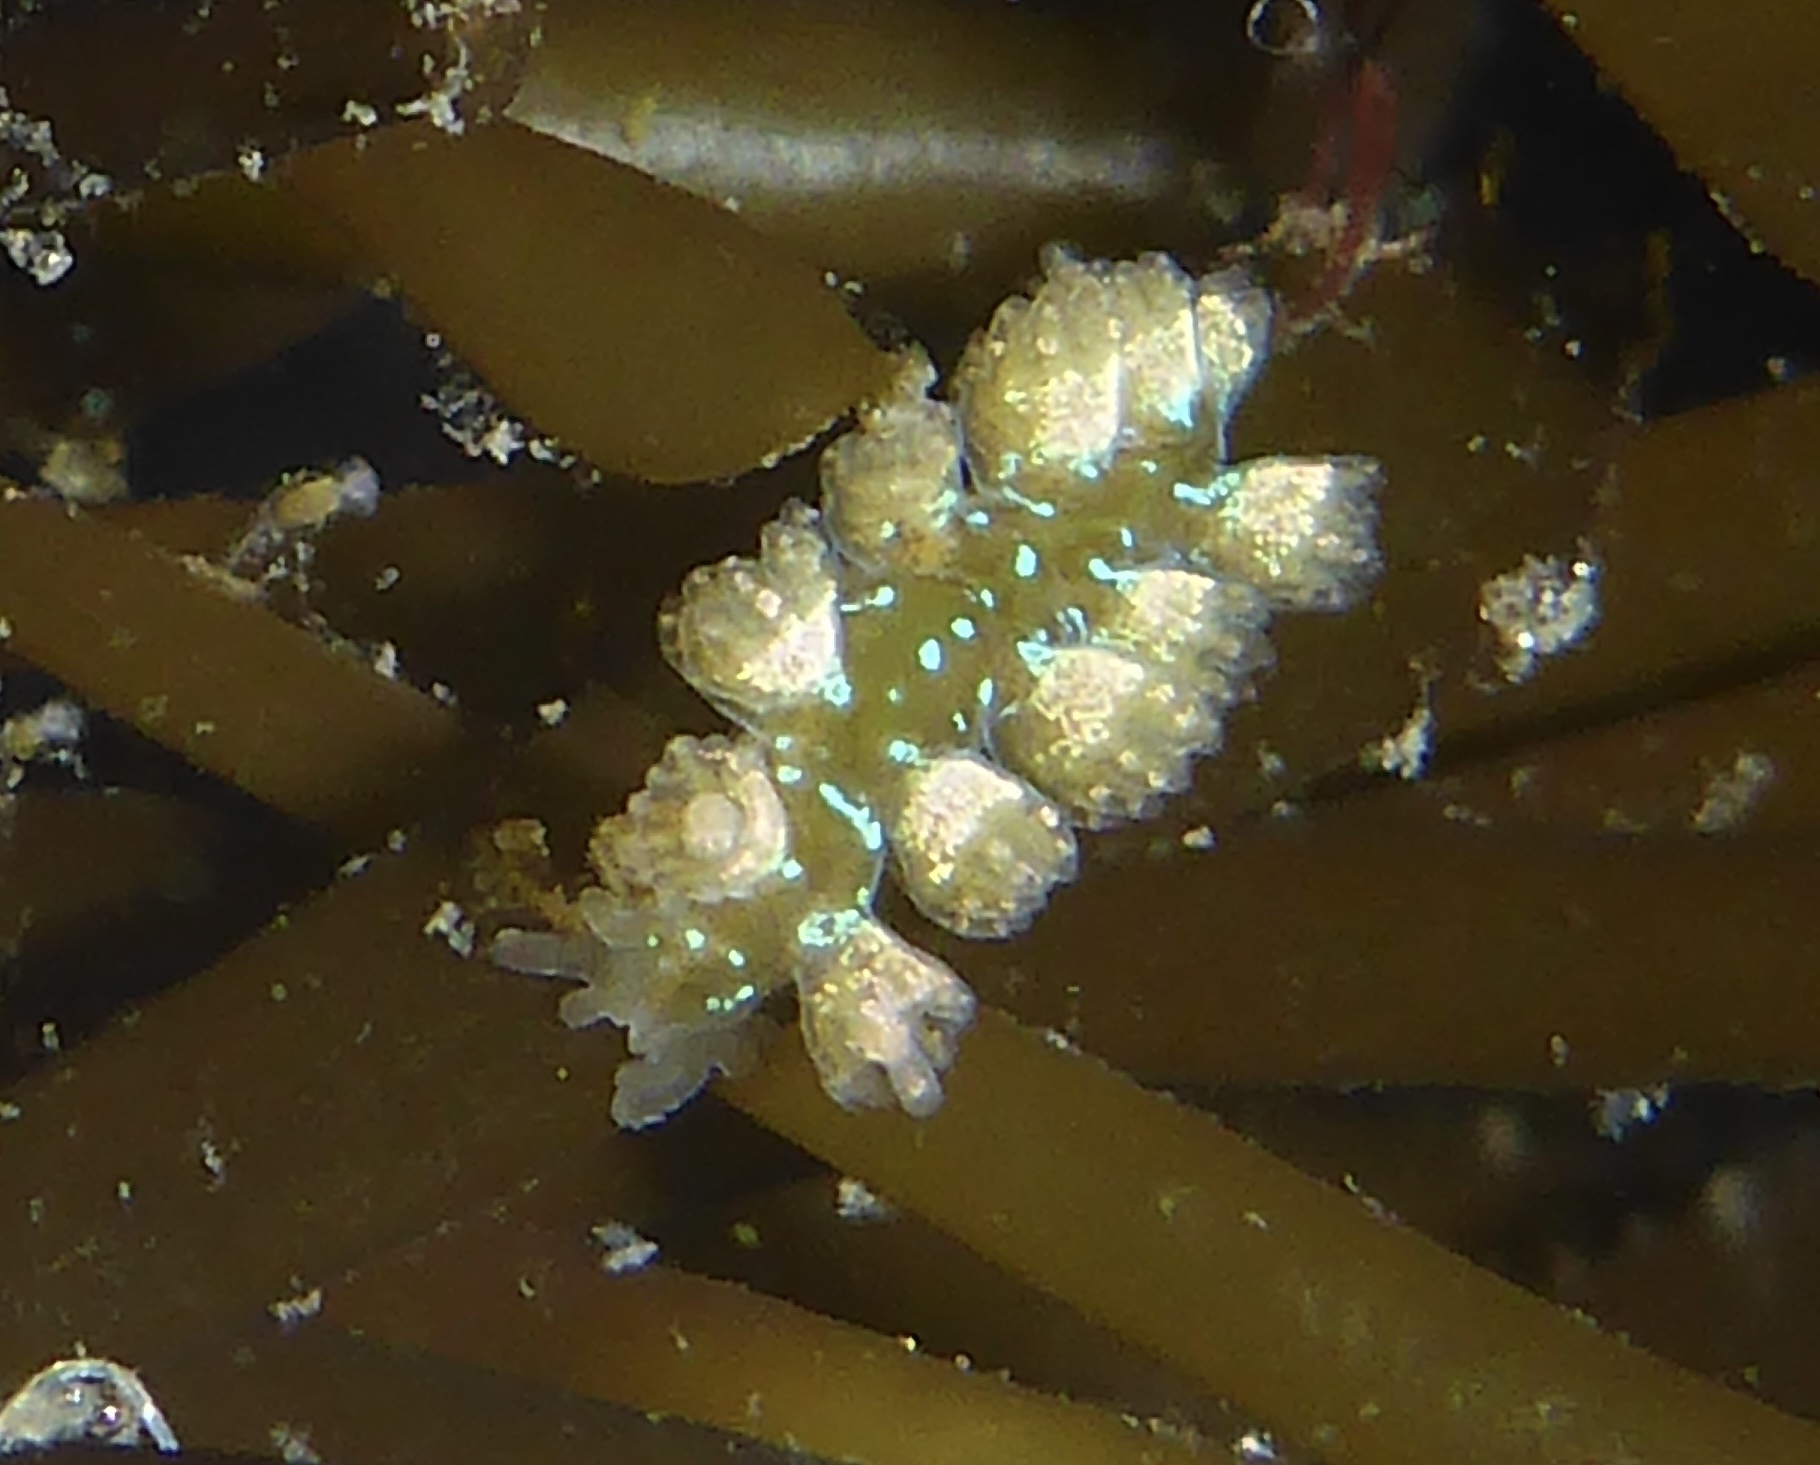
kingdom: Animalia
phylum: Mollusca
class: Gastropoda
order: Nudibranchia
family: Hancockiidae
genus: Hancockia
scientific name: Hancockia californica
